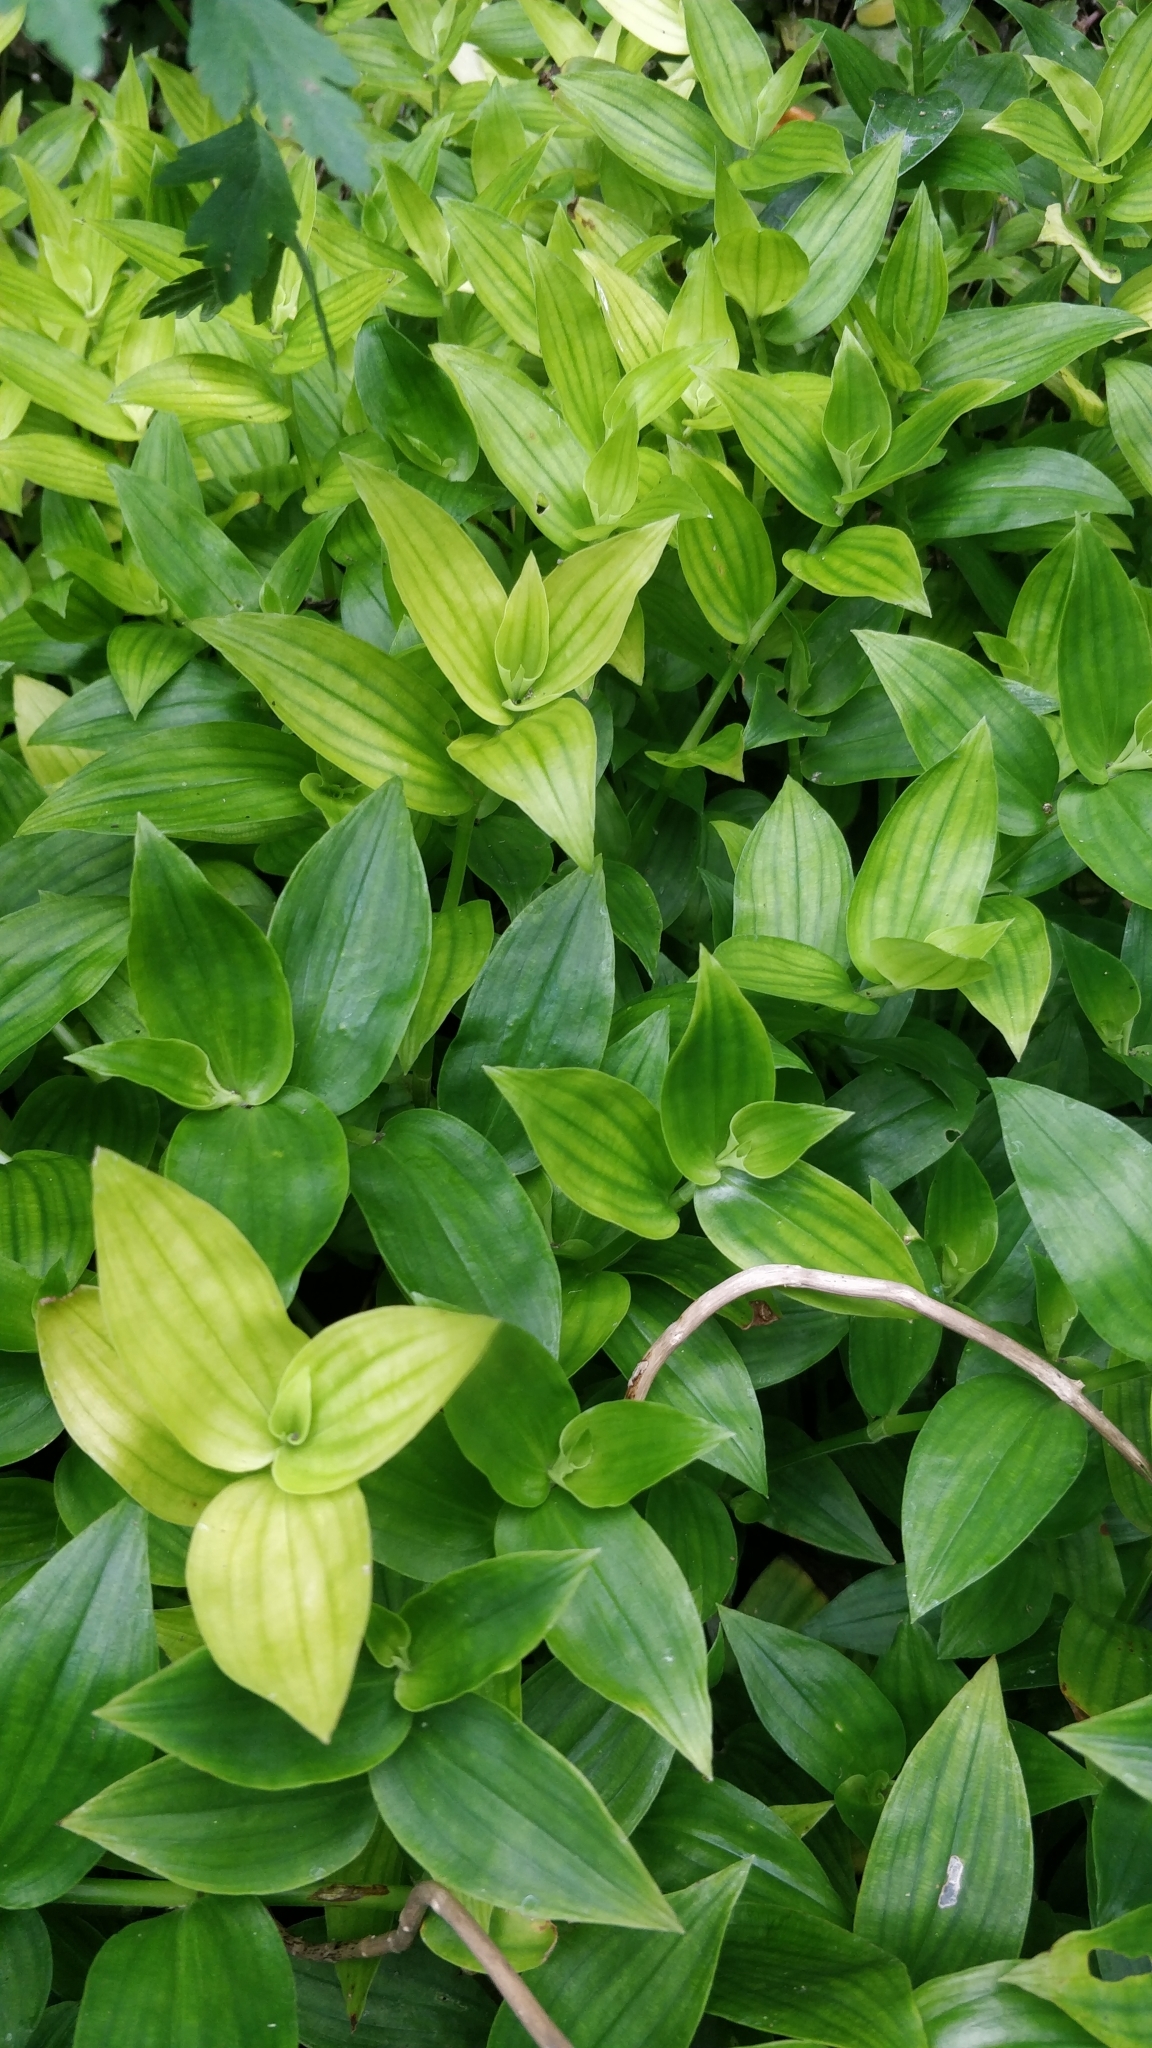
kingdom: Plantae
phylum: Tracheophyta
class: Liliopsida
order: Commelinales
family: Commelinaceae
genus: Tradescantia
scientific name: Tradescantia fluminensis
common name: Wandering-jew
